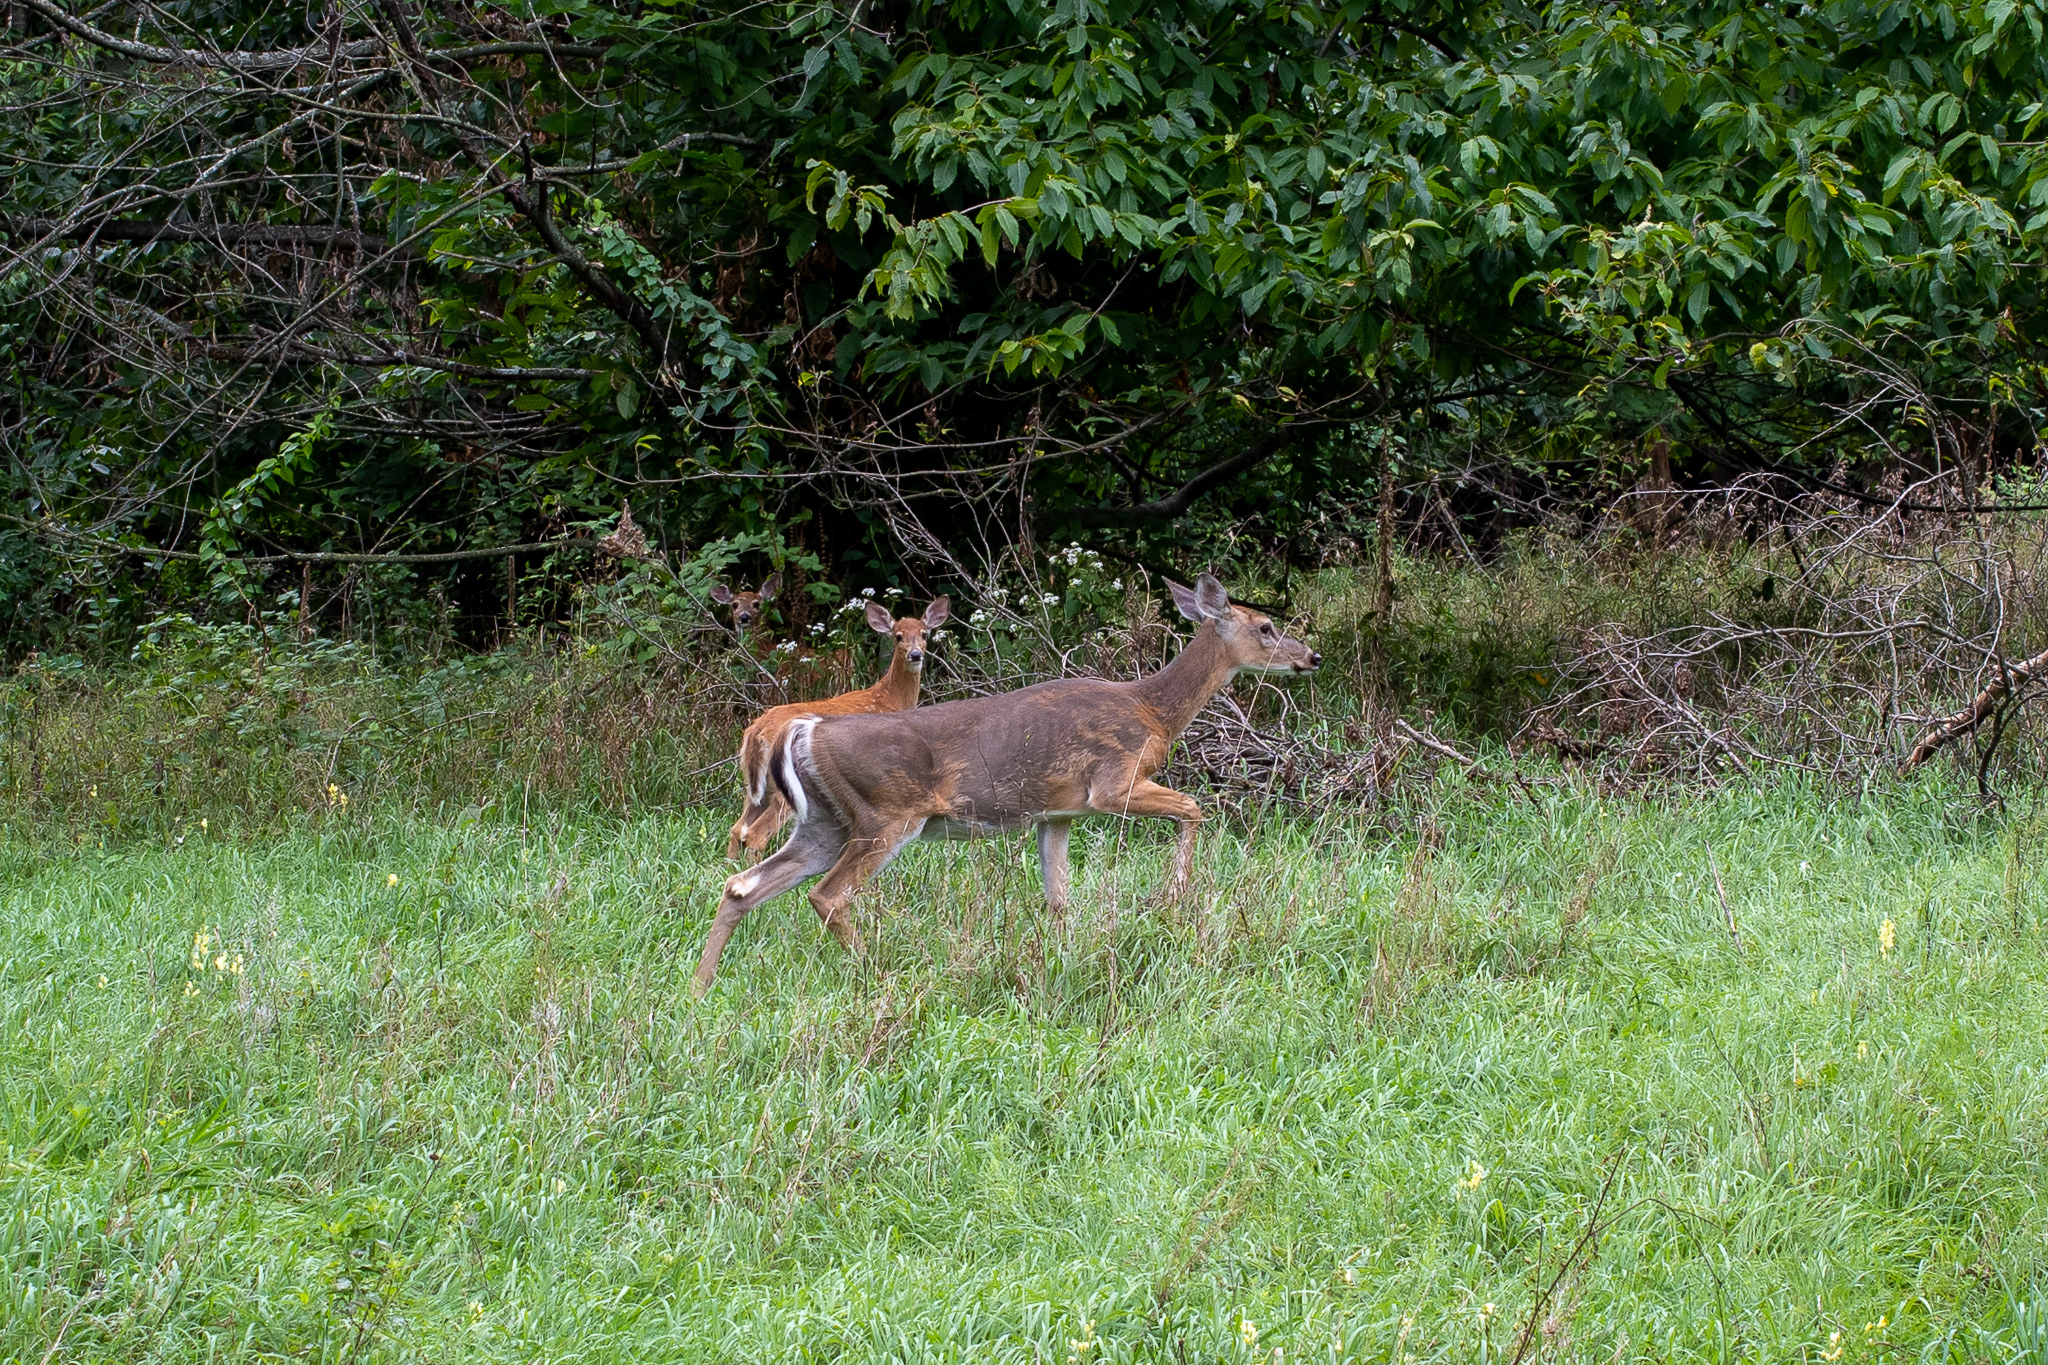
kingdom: Animalia
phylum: Chordata
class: Mammalia
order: Artiodactyla
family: Cervidae
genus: Odocoileus
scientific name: Odocoileus virginianus
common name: White-tailed deer
